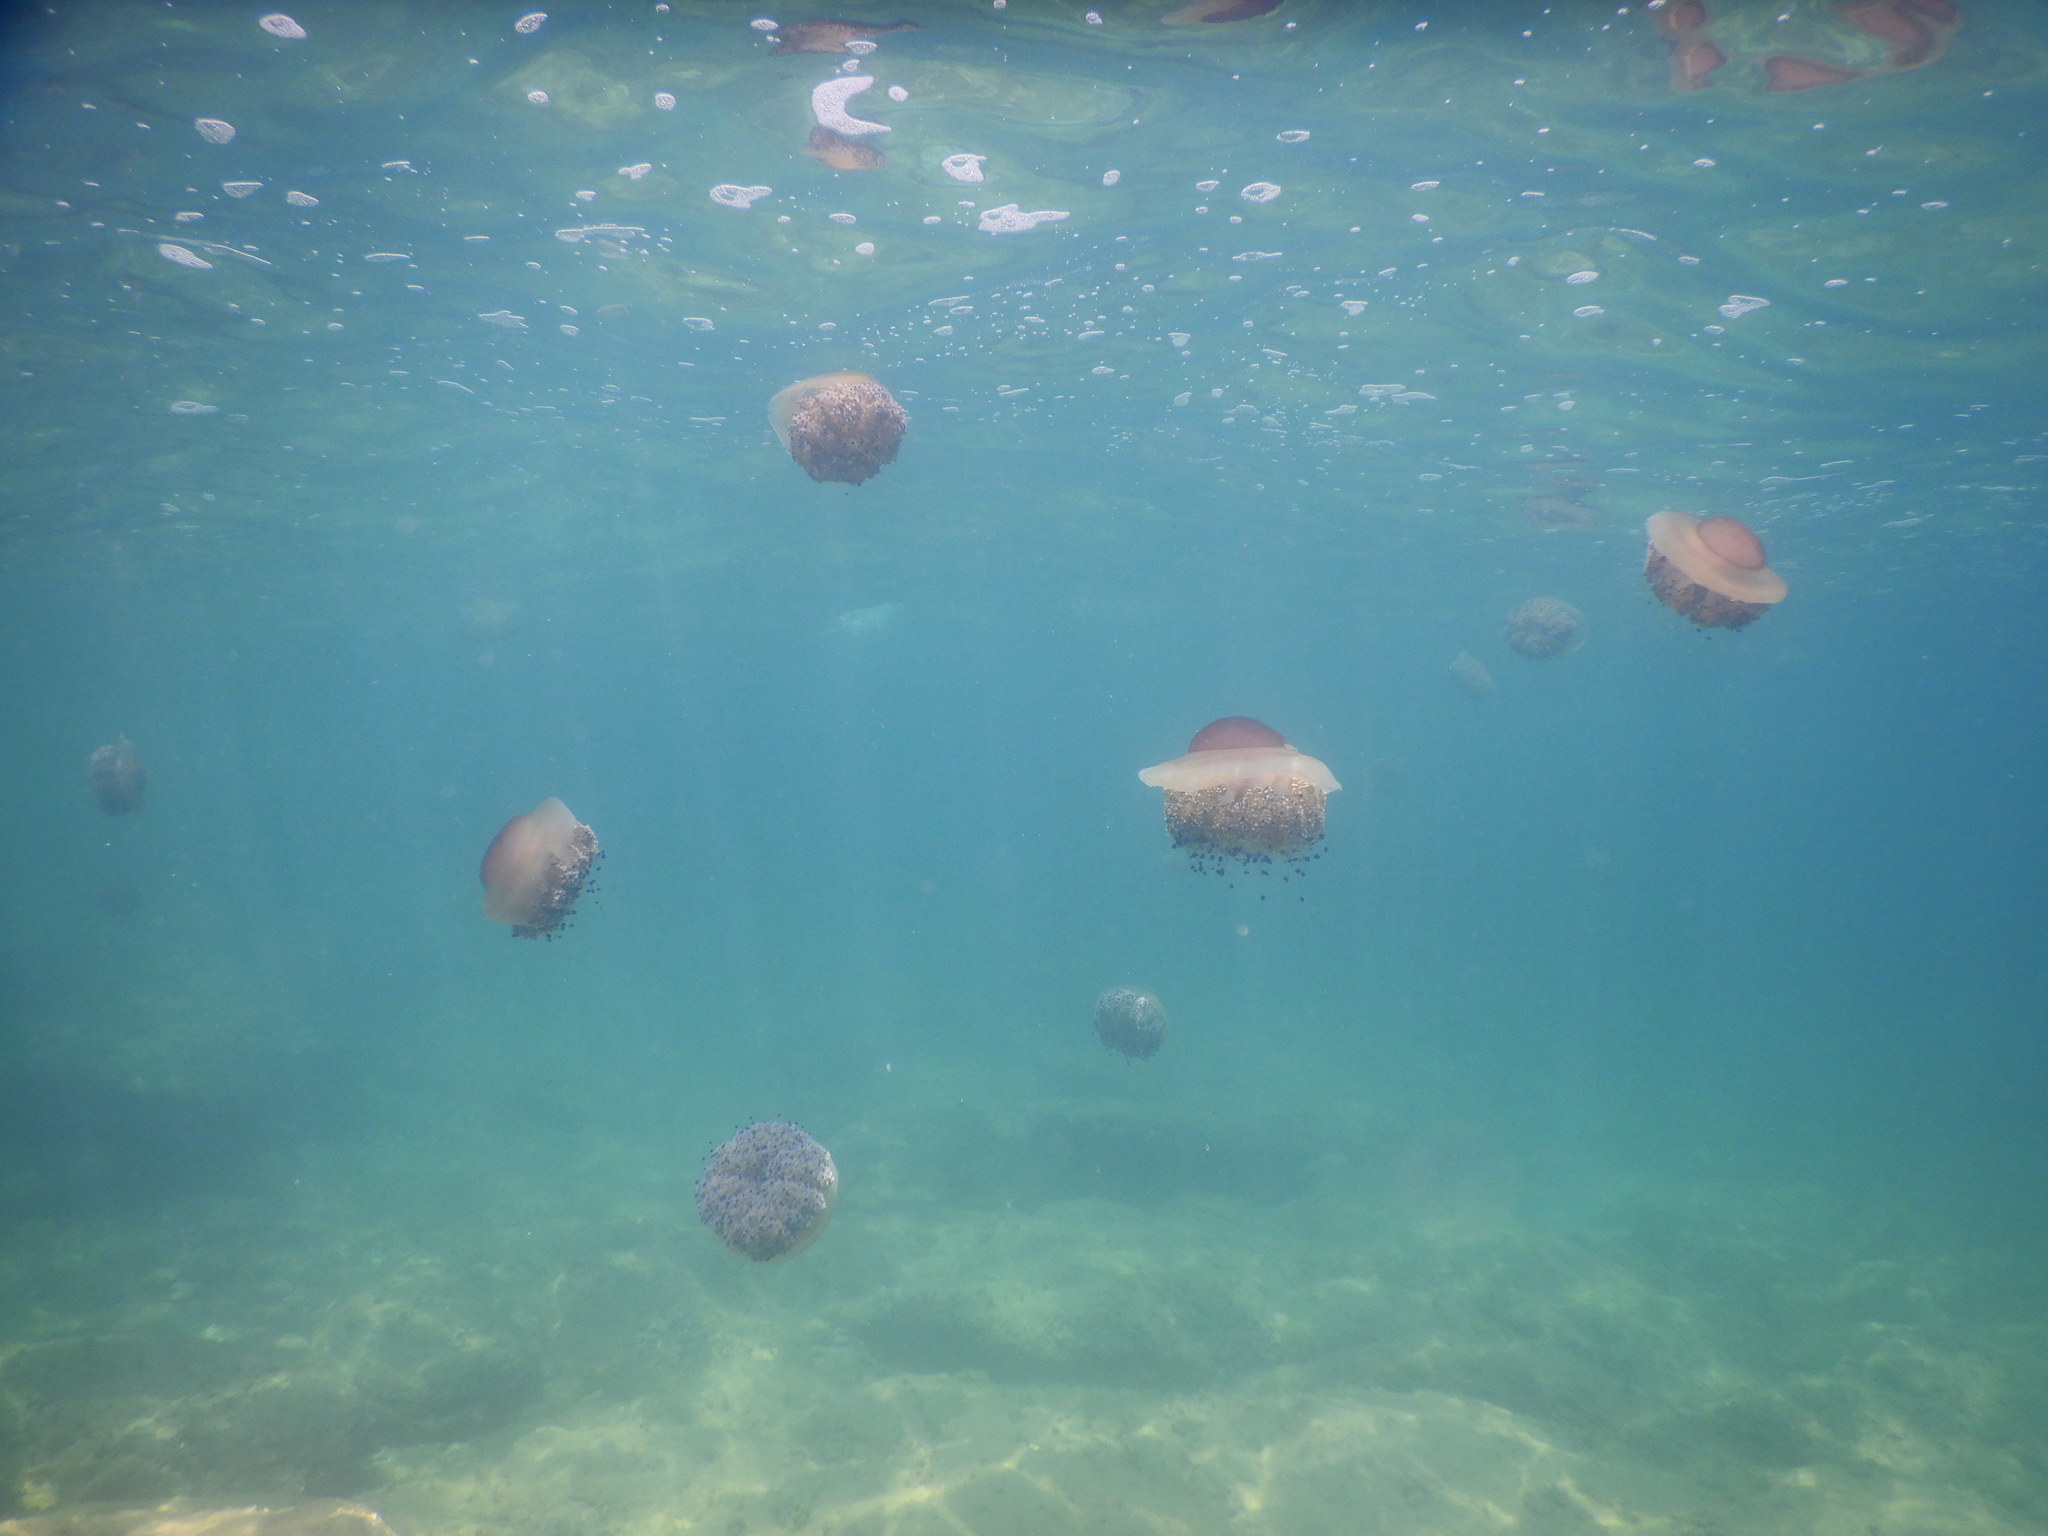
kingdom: Animalia
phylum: Cnidaria
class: Scyphozoa
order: Rhizostomeae
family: Cepheidae
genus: Cotylorhiza
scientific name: Cotylorhiza tuberculata
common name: Mediterranean jelly
